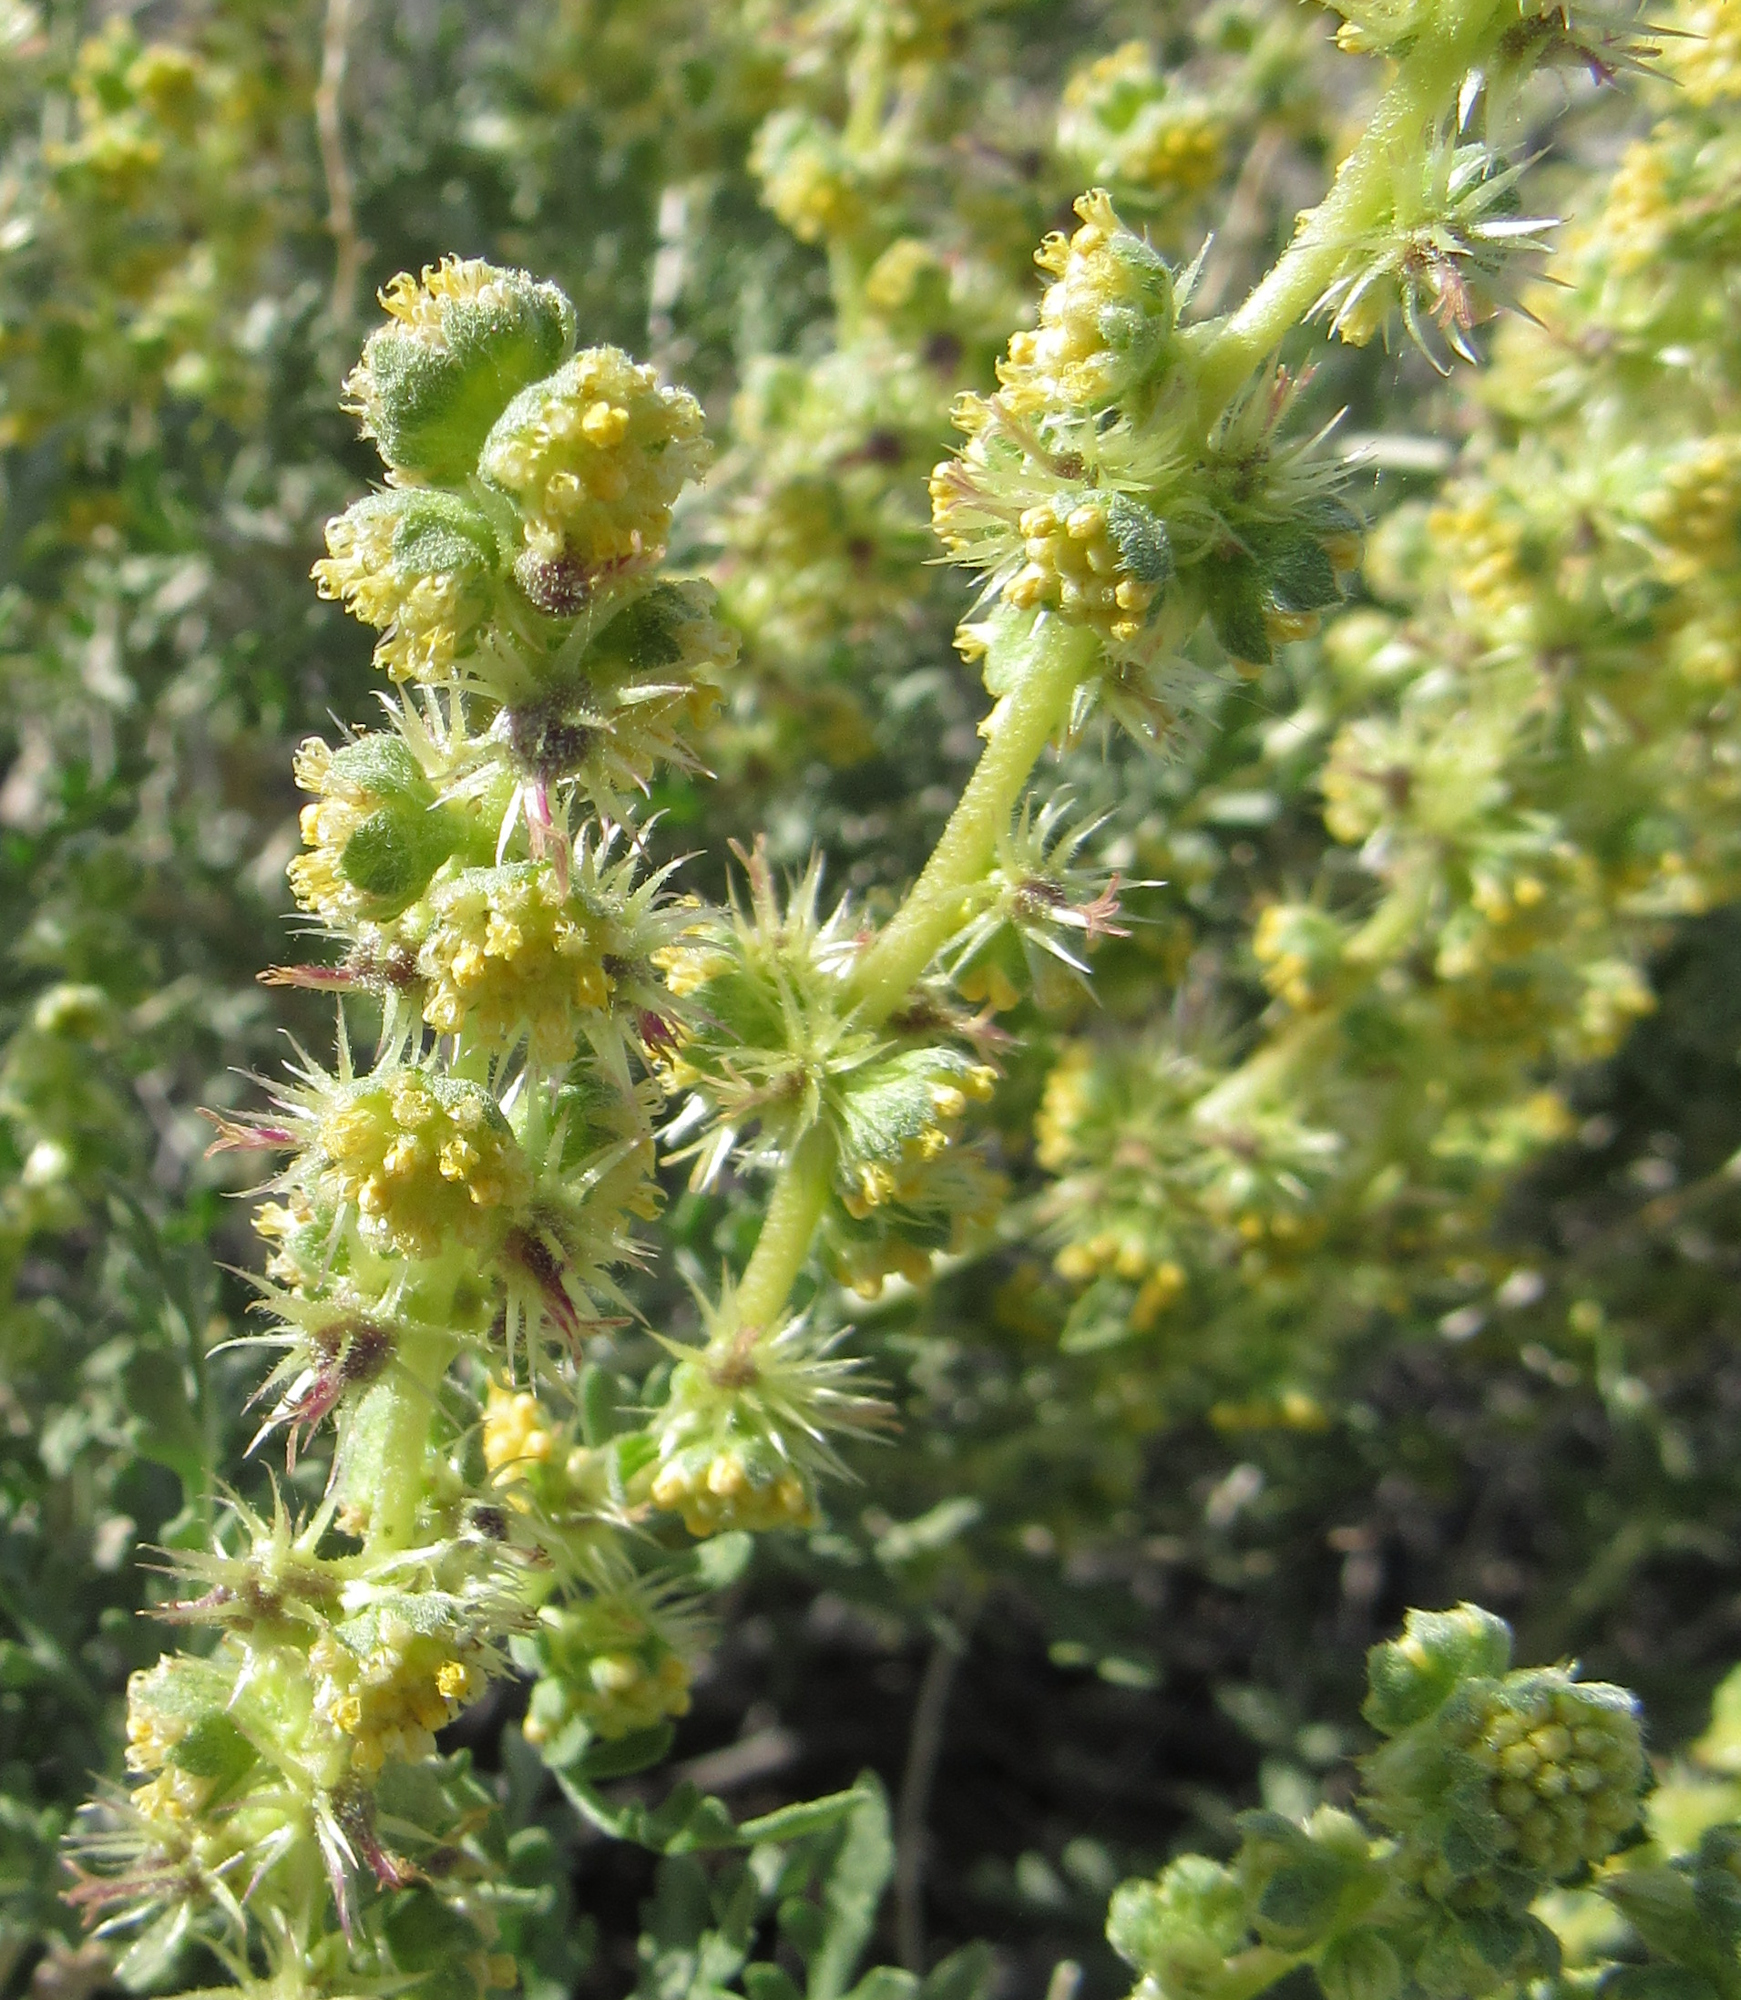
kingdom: Plantae
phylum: Tracheophyta
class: Magnoliopsida
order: Asterales
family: Asteraceae
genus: Ambrosia
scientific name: Ambrosia dumosa
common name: Bur-sage
